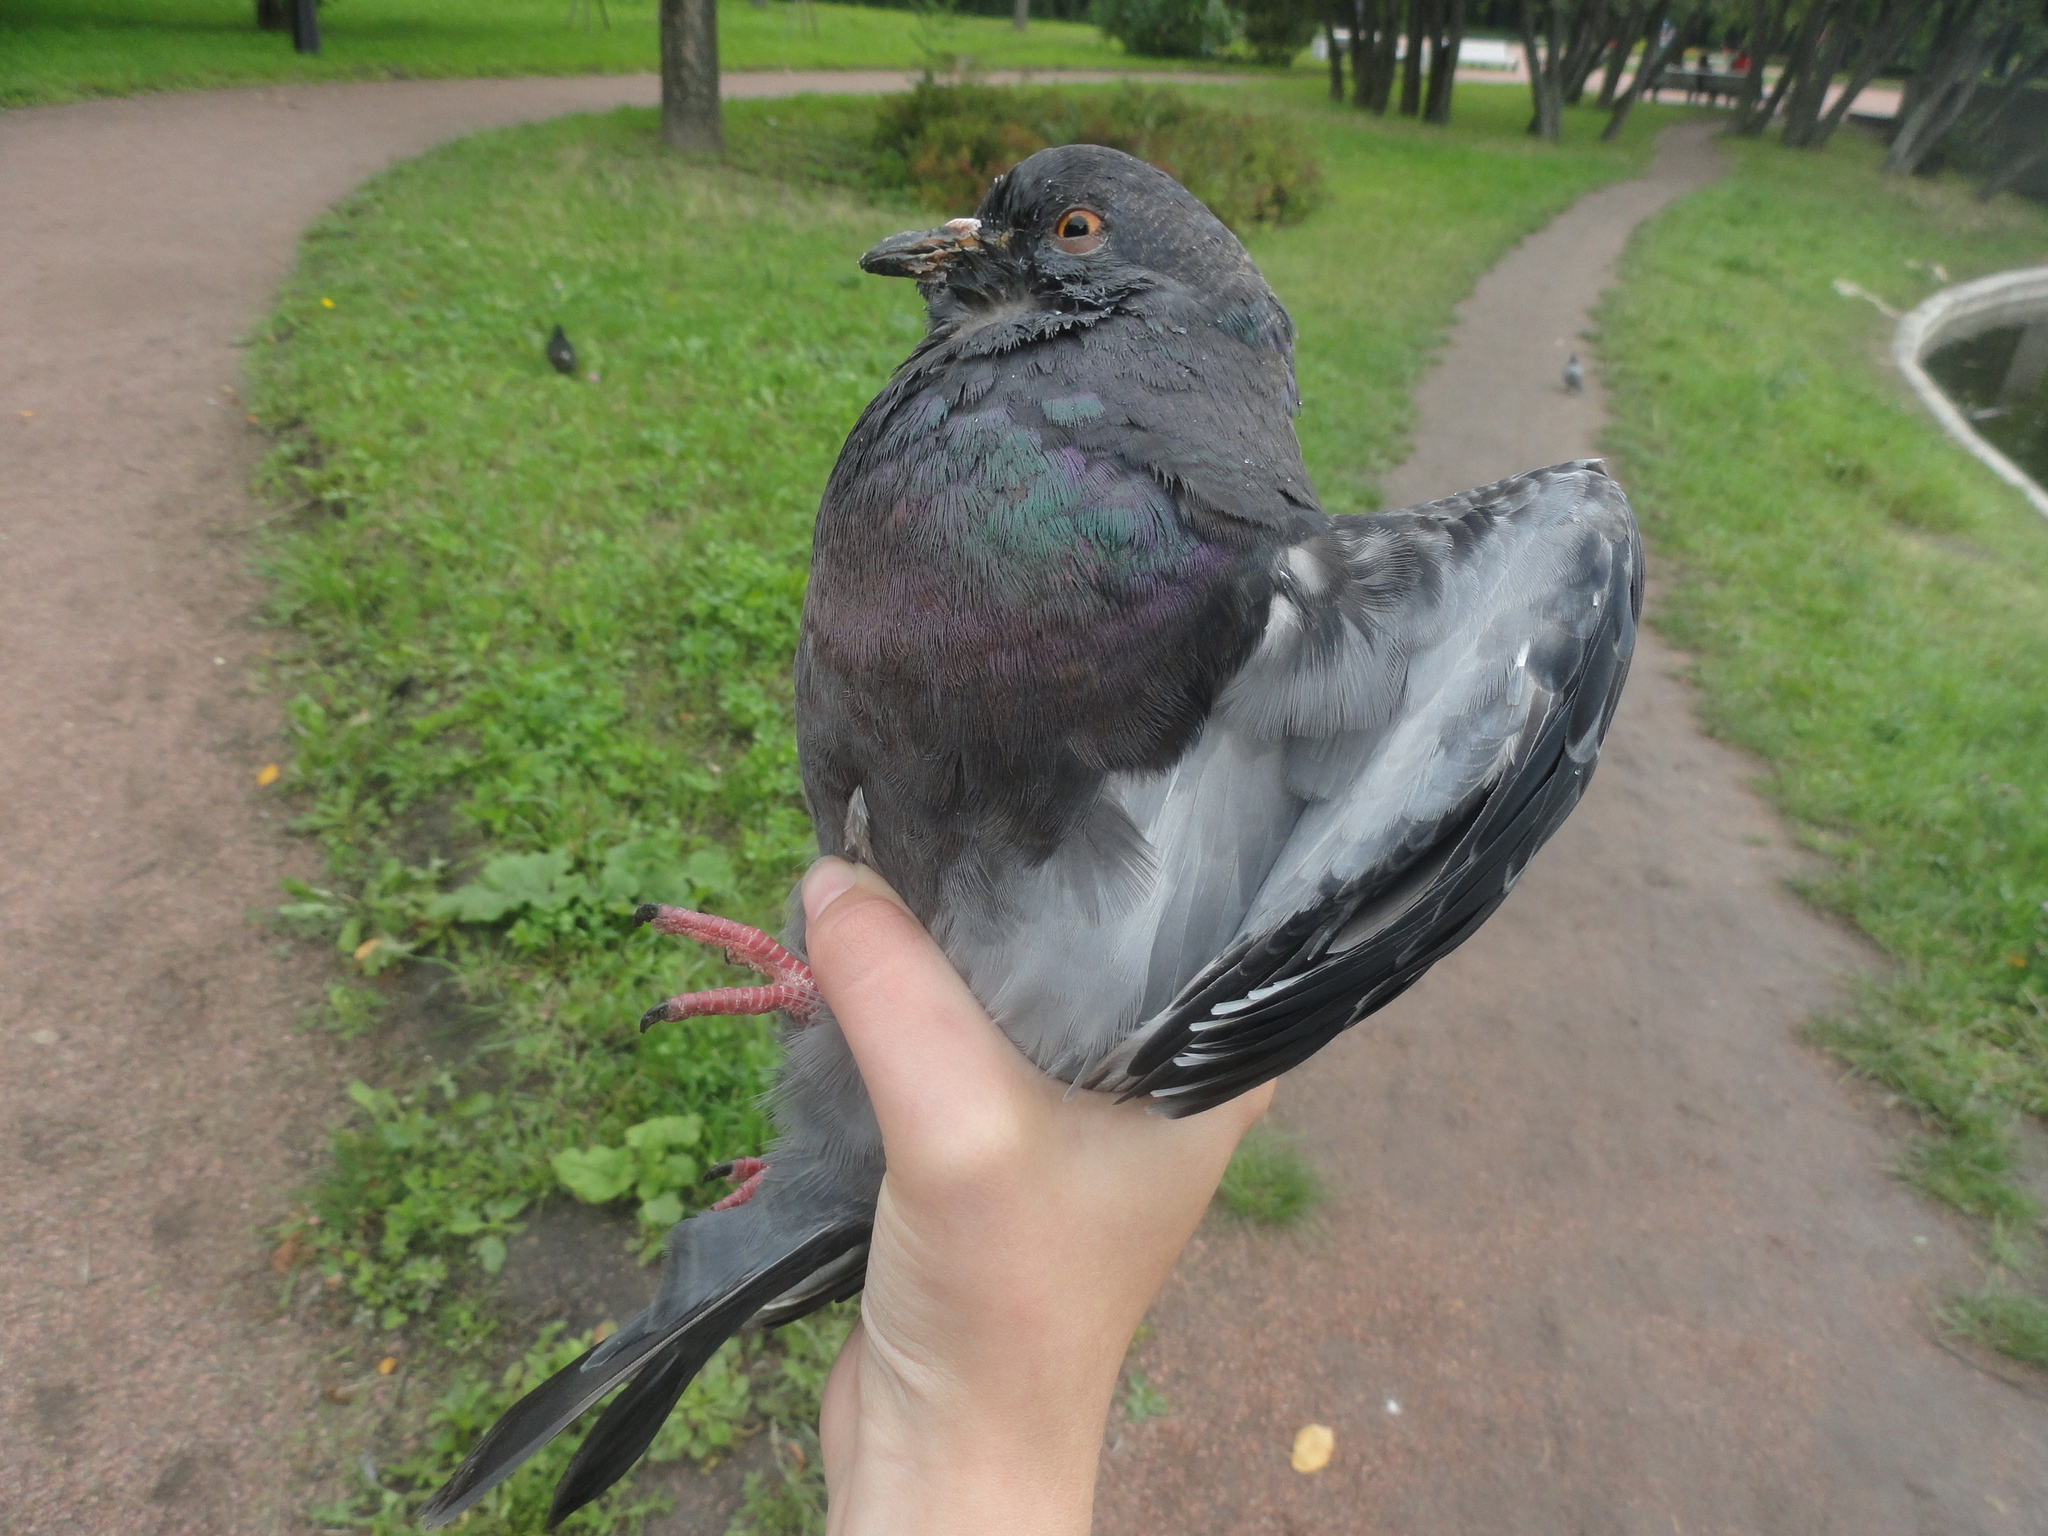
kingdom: Animalia
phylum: Chordata
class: Aves
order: Columbiformes
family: Columbidae
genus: Columba
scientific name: Columba livia
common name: Rock pigeon
